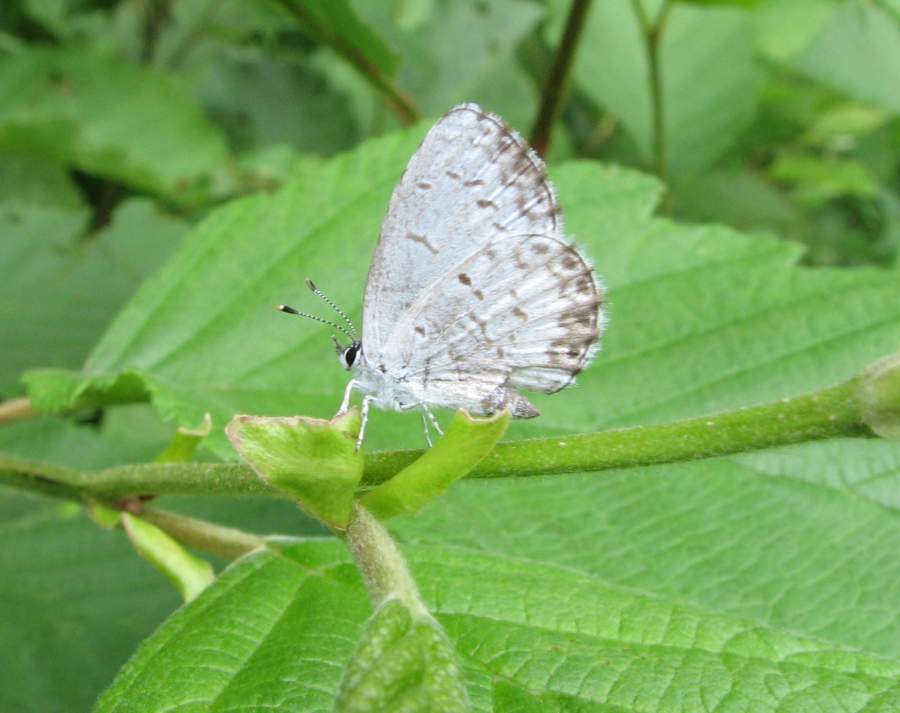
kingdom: Animalia
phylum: Arthropoda
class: Insecta
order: Lepidoptera
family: Lycaenidae
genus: Celastrina
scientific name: Celastrina lucia
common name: Lucia azure
